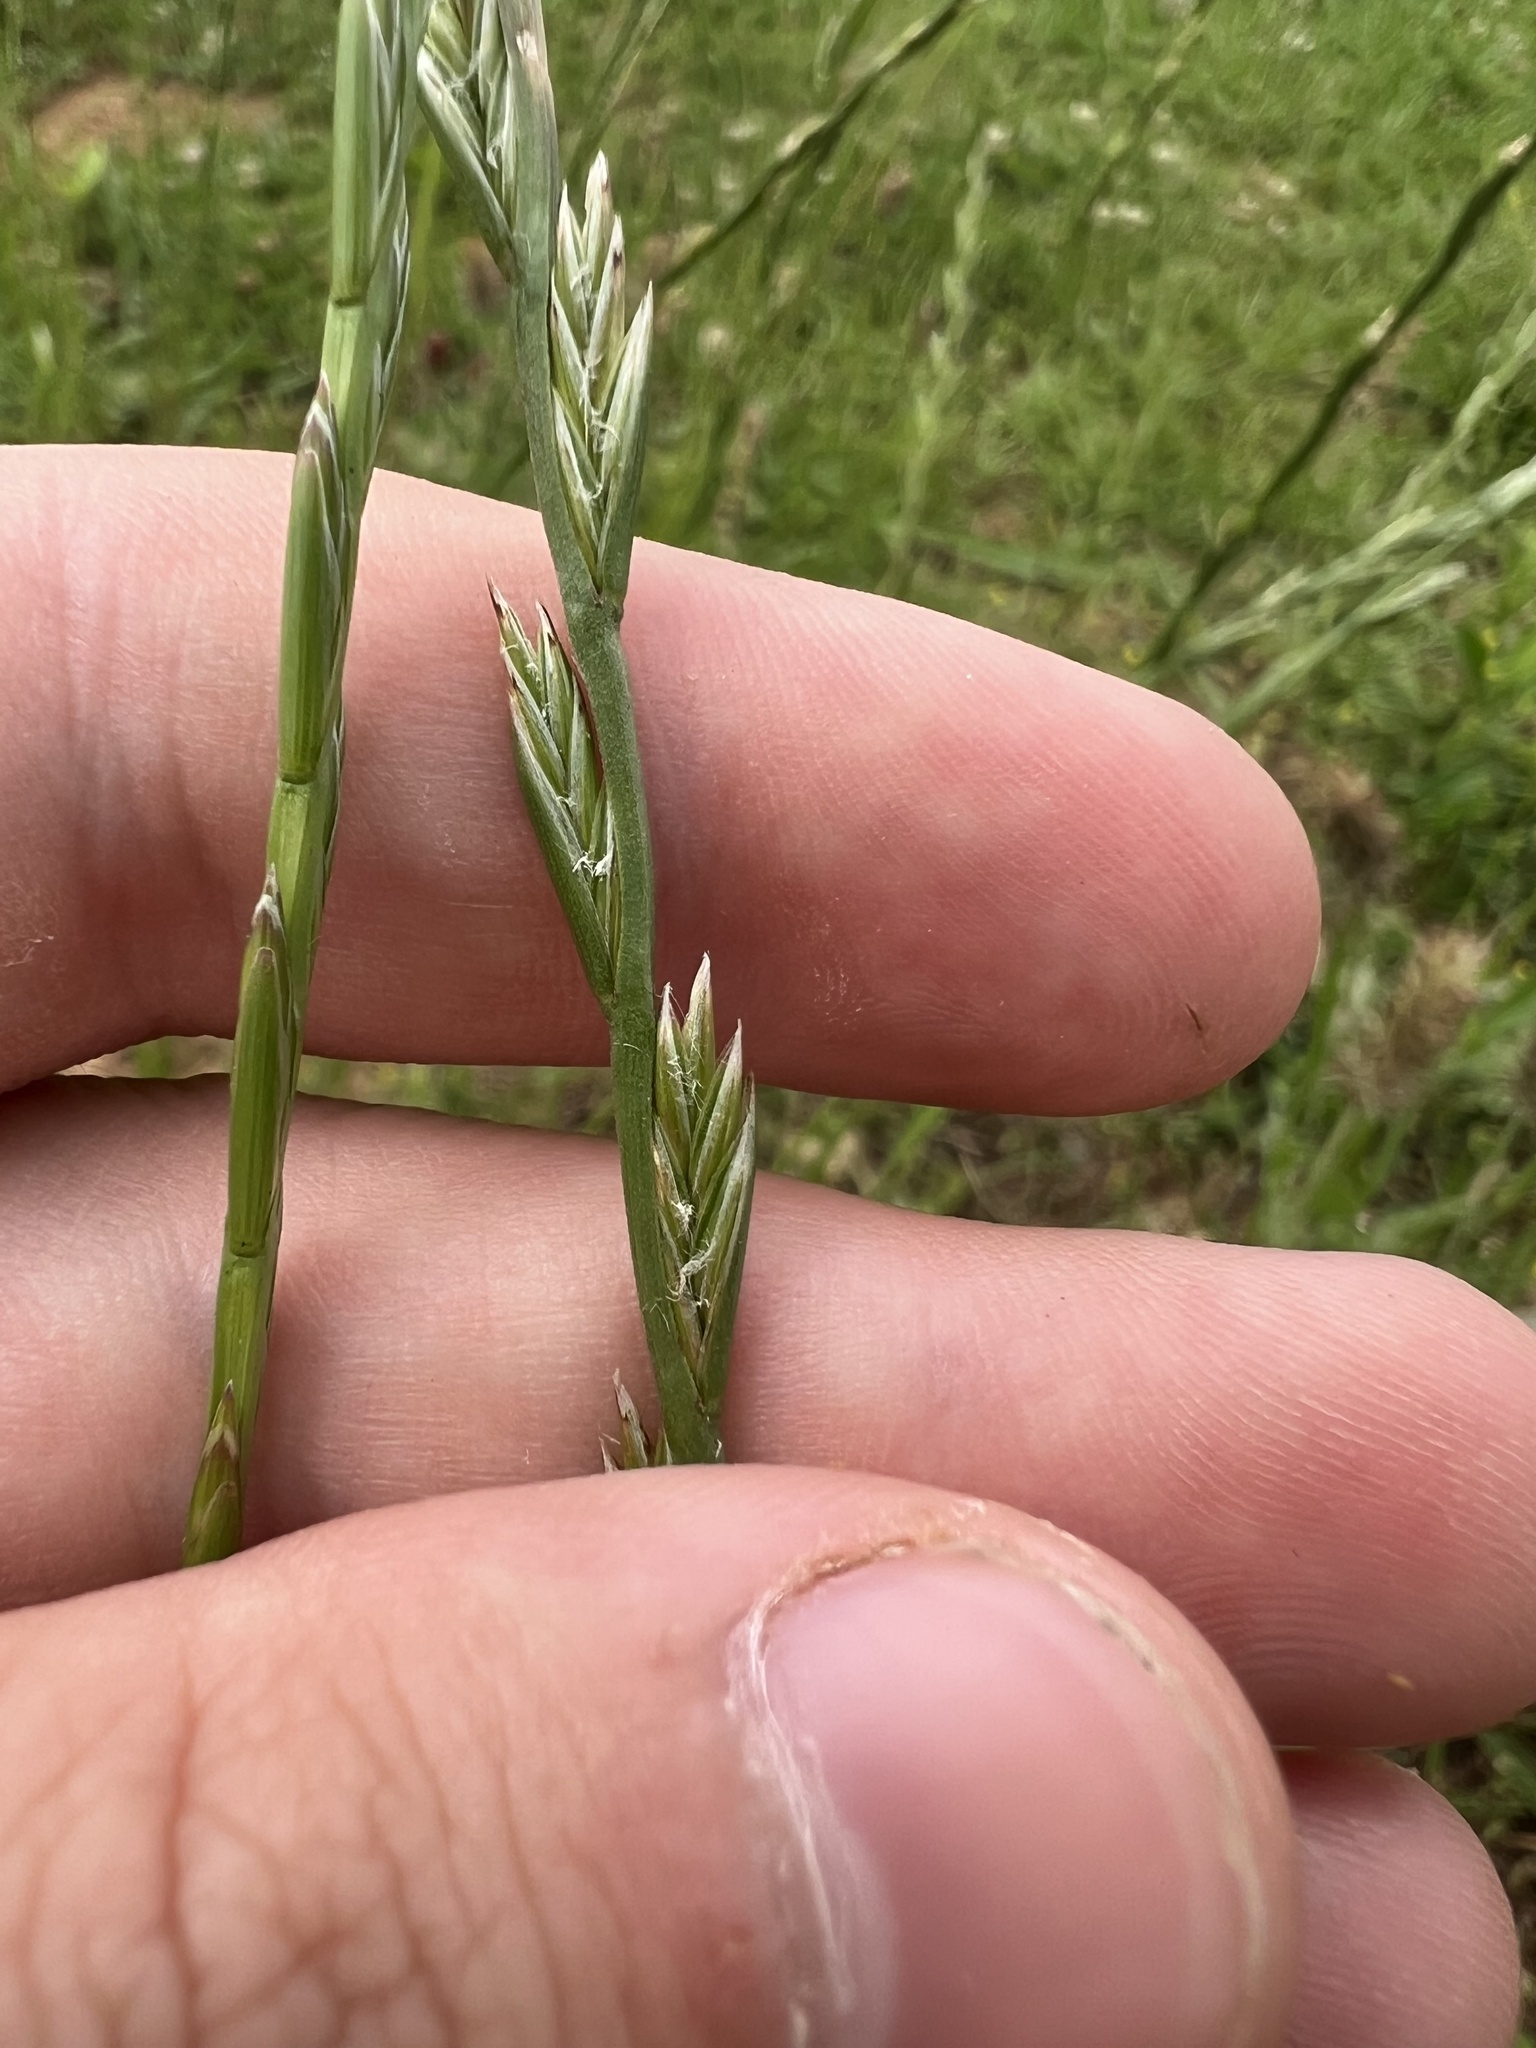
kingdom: Plantae
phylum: Tracheophyta
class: Liliopsida
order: Poales
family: Poaceae
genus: Lolium
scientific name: Lolium perenne
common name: Perennial ryegrass
